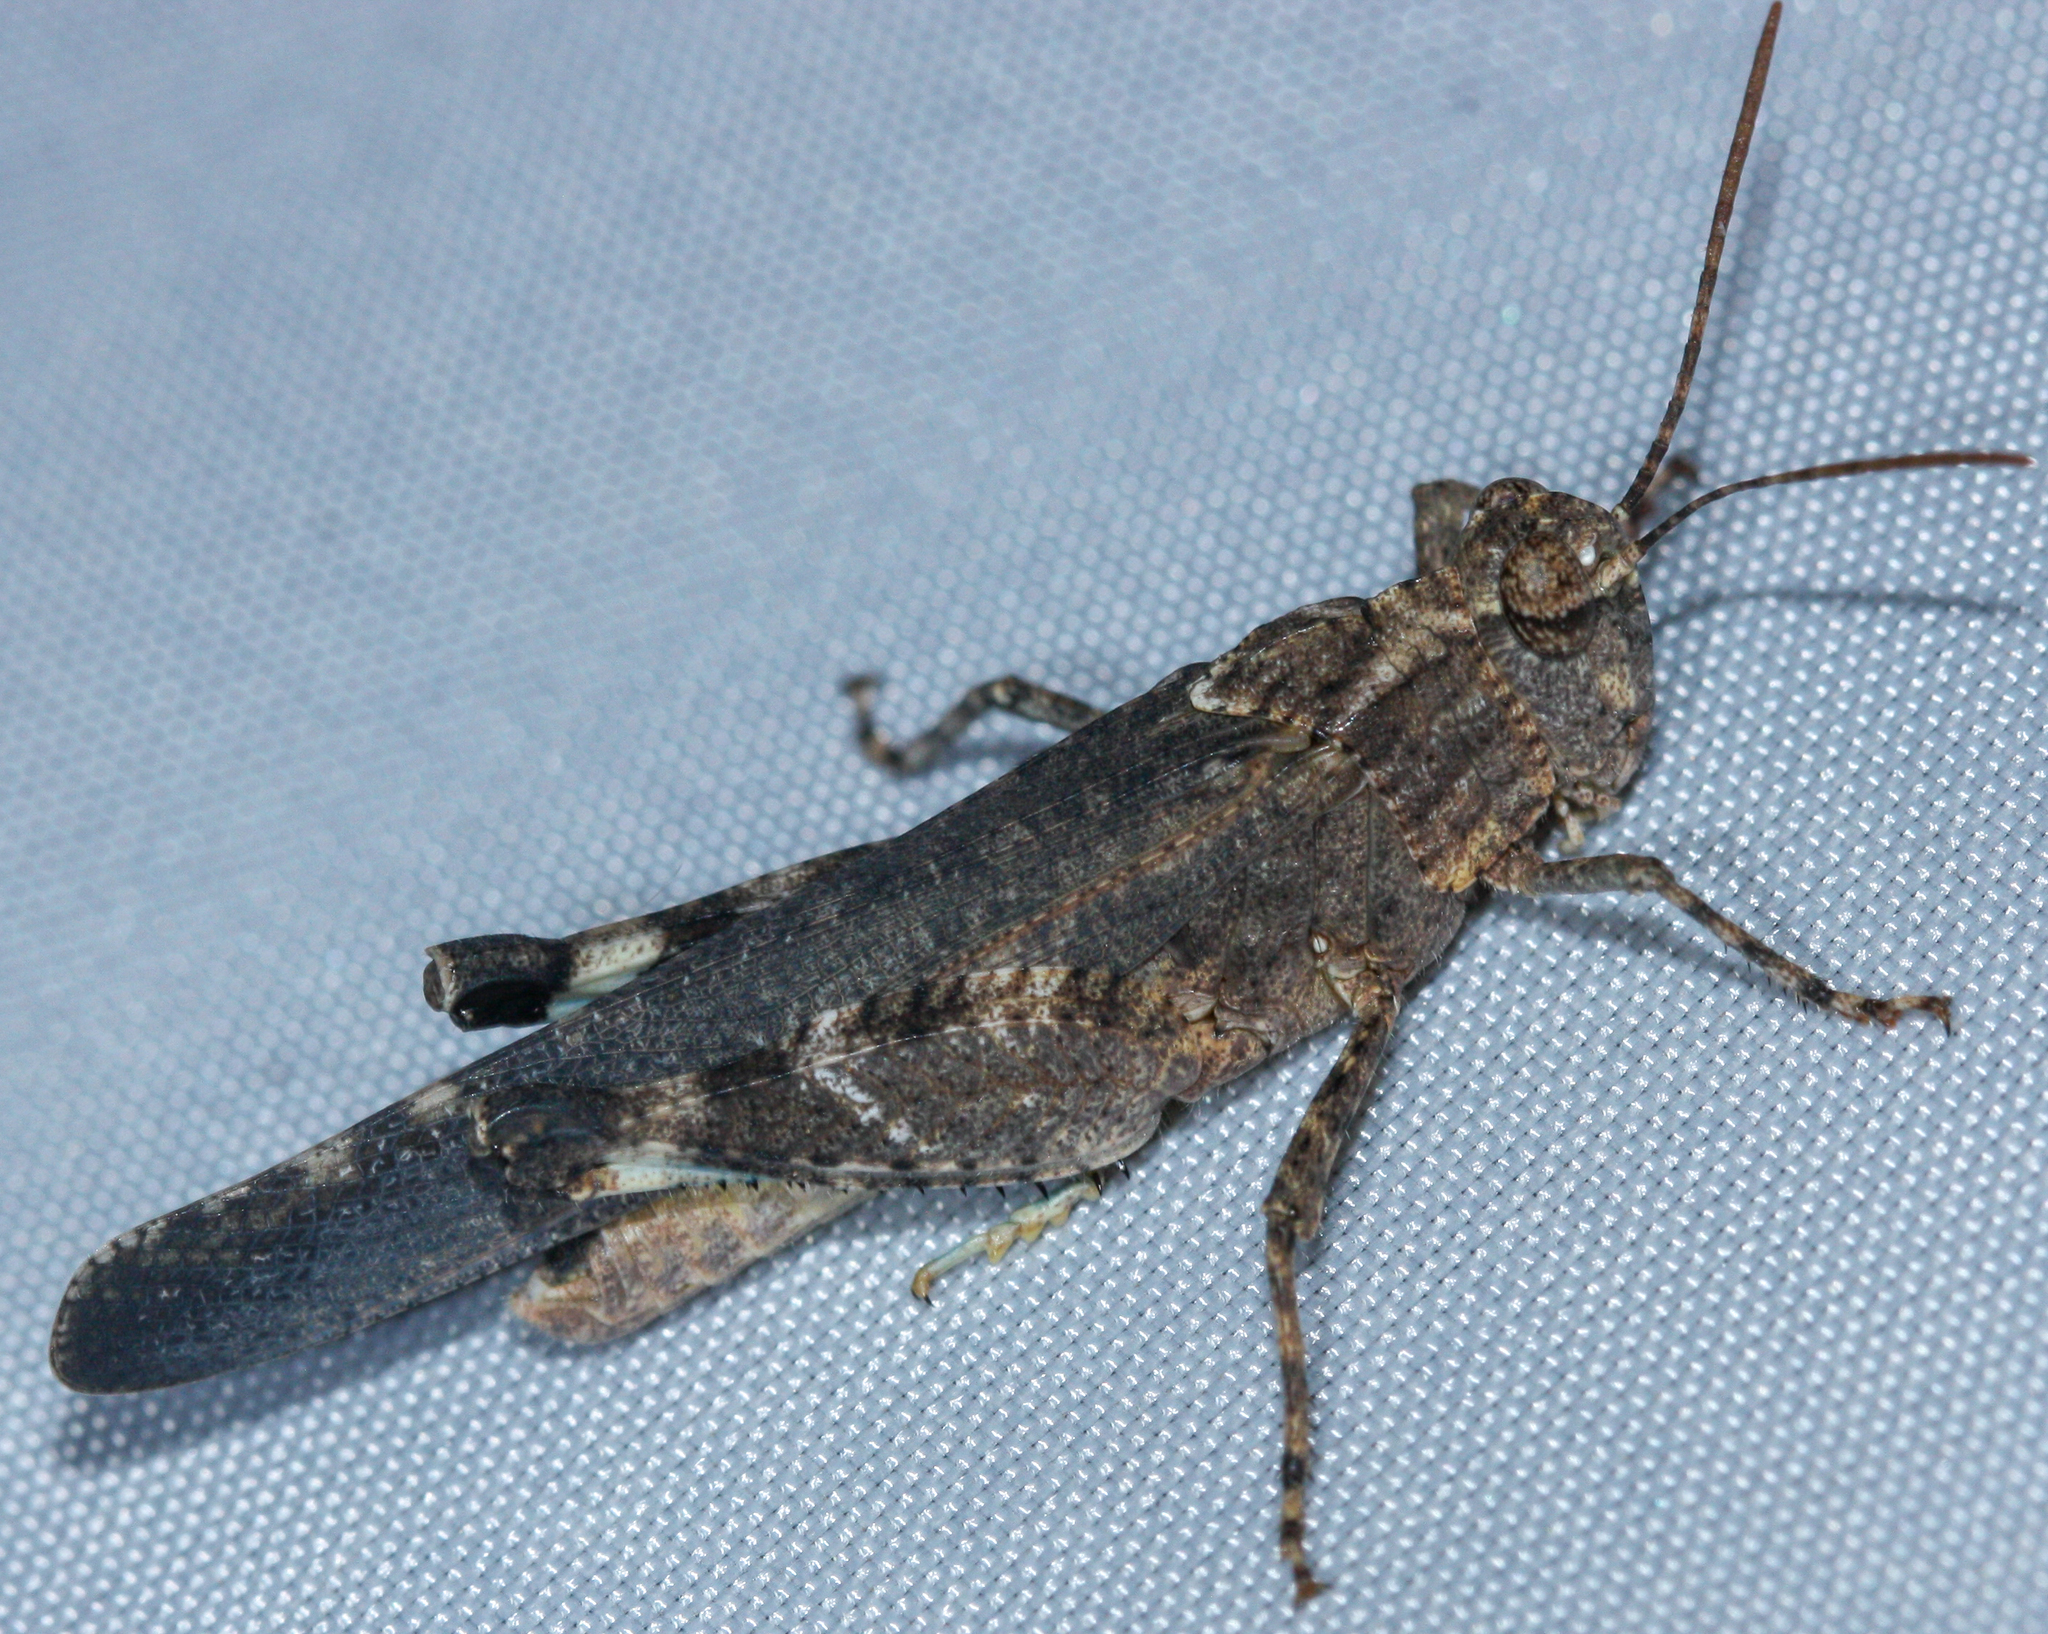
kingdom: Animalia
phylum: Arthropoda
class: Insecta
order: Orthoptera
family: Acrididae
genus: Lactista
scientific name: Lactista gibbosus
